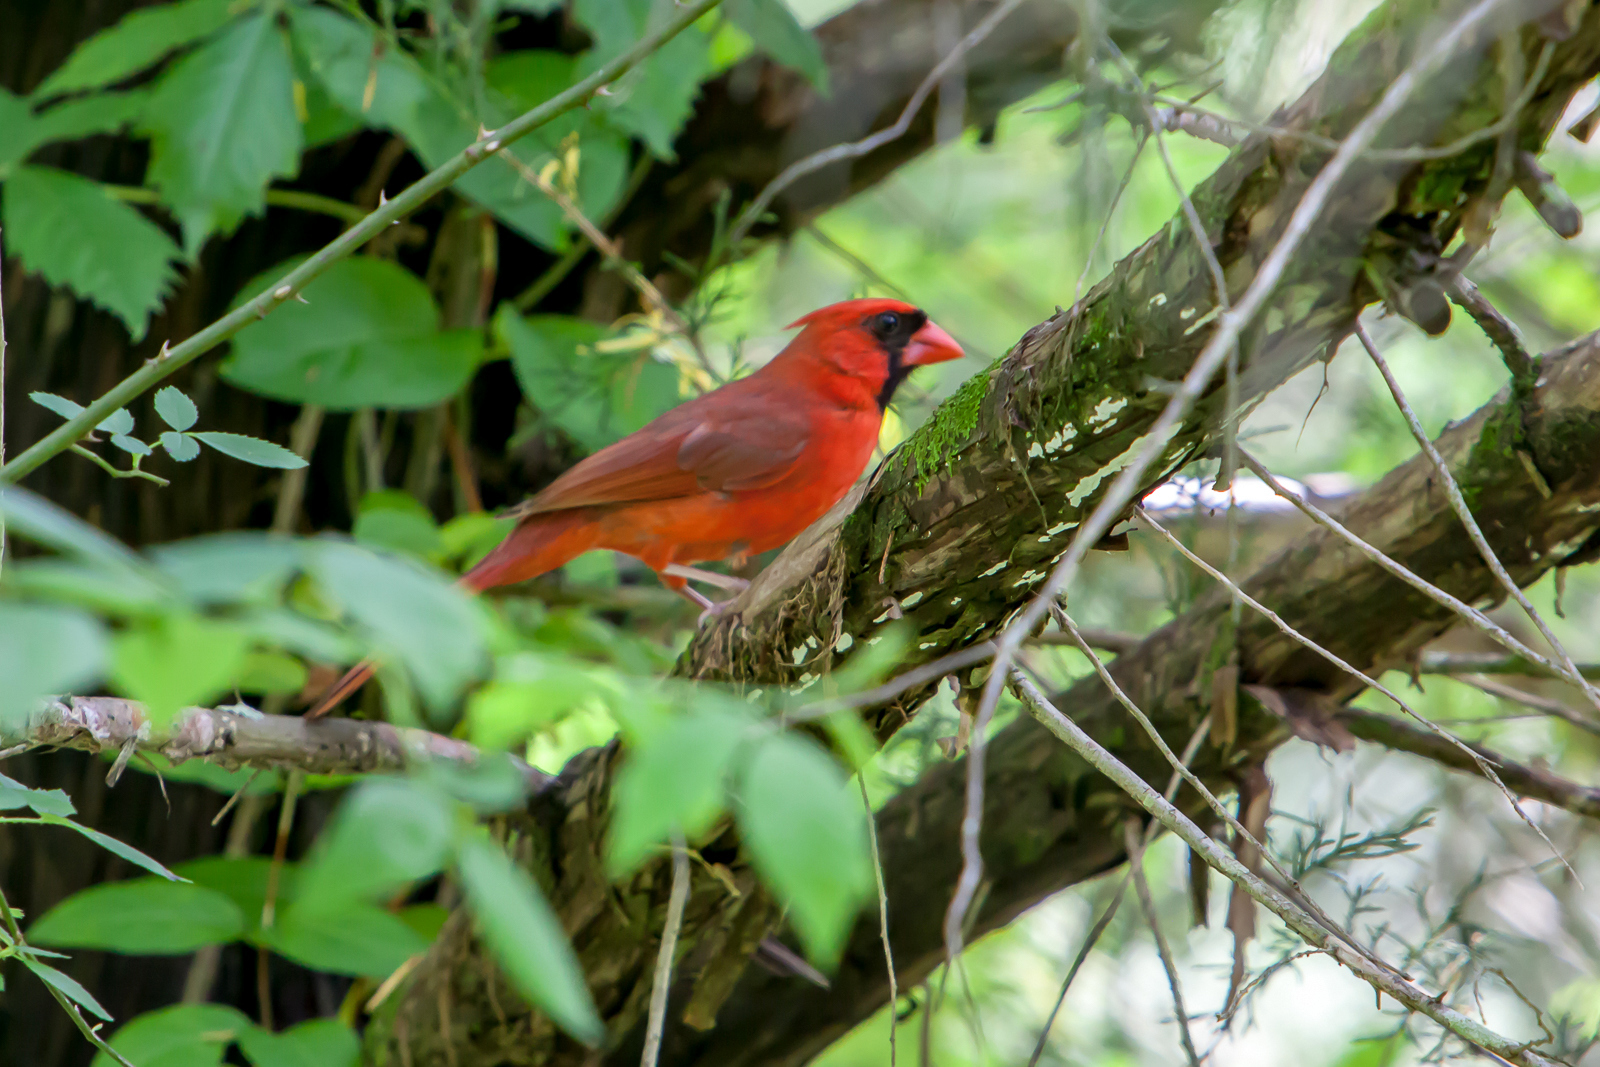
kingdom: Animalia
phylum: Chordata
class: Aves
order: Passeriformes
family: Cardinalidae
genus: Cardinalis
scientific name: Cardinalis cardinalis
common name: Northern cardinal
